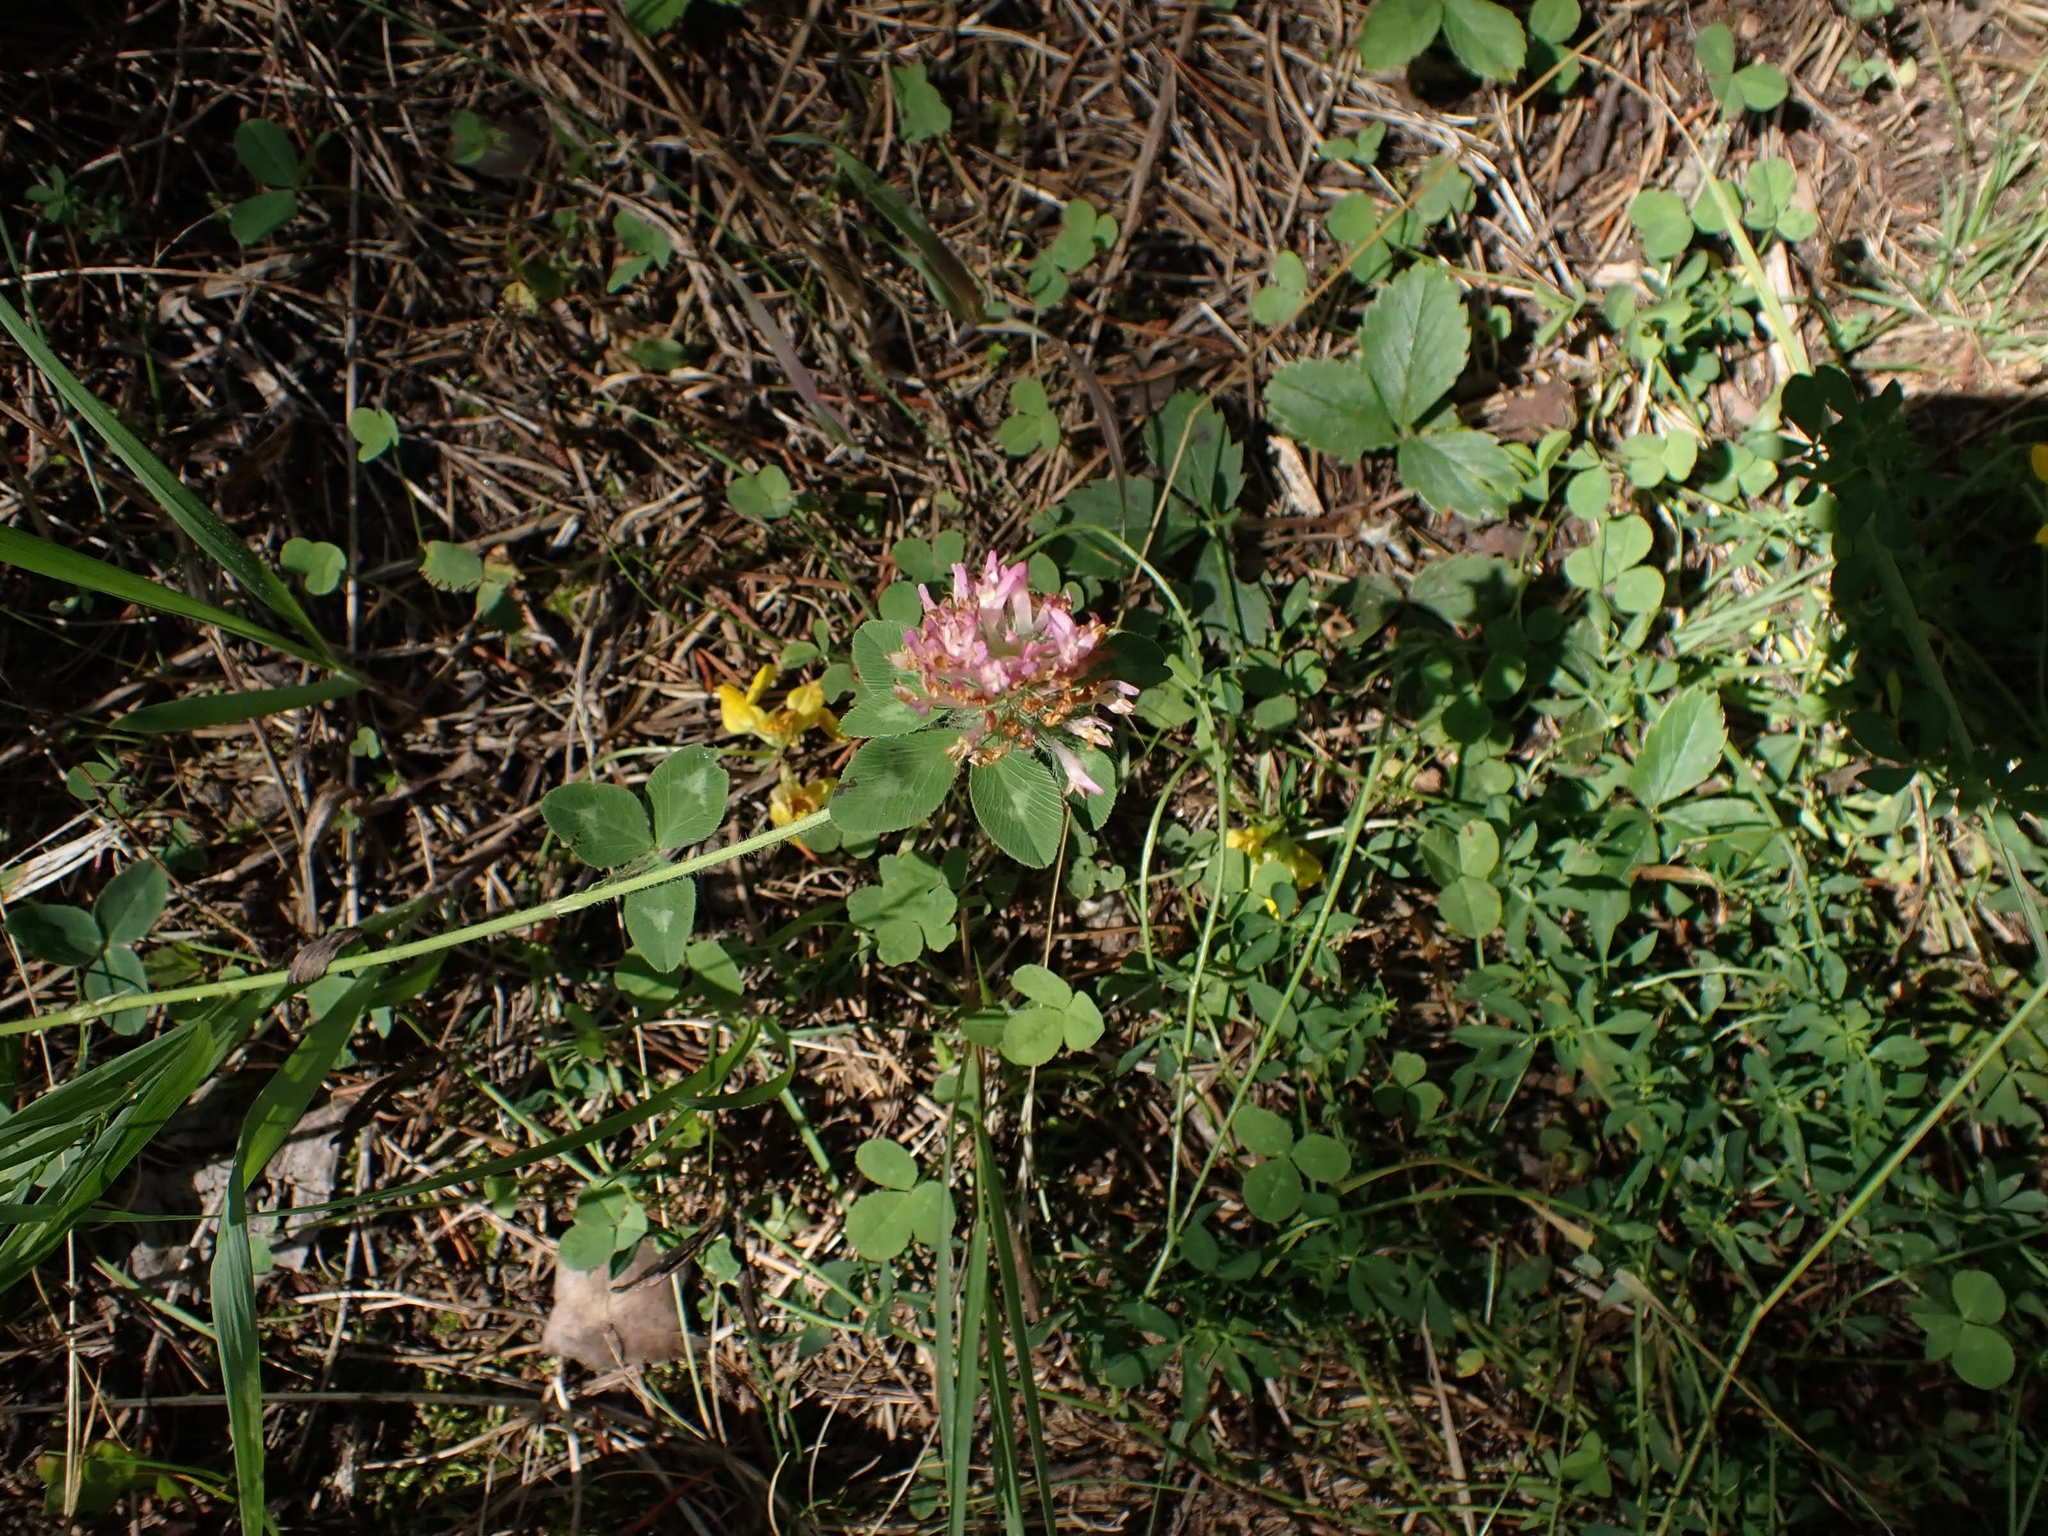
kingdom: Plantae
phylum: Tracheophyta
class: Magnoliopsida
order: Fabales
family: Fabaceae
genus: Trifolium
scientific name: Trifolium pratense
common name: Red clover
